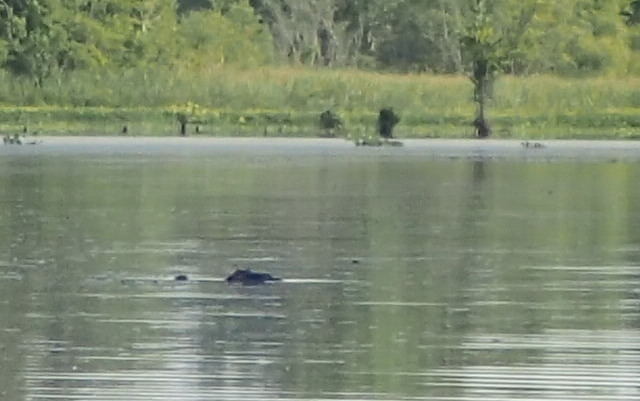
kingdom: Animalia
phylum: Chordata
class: Crocodylia
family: Alligatoridae
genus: Alligator
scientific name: Alligator mississippiensis
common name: American alligator
